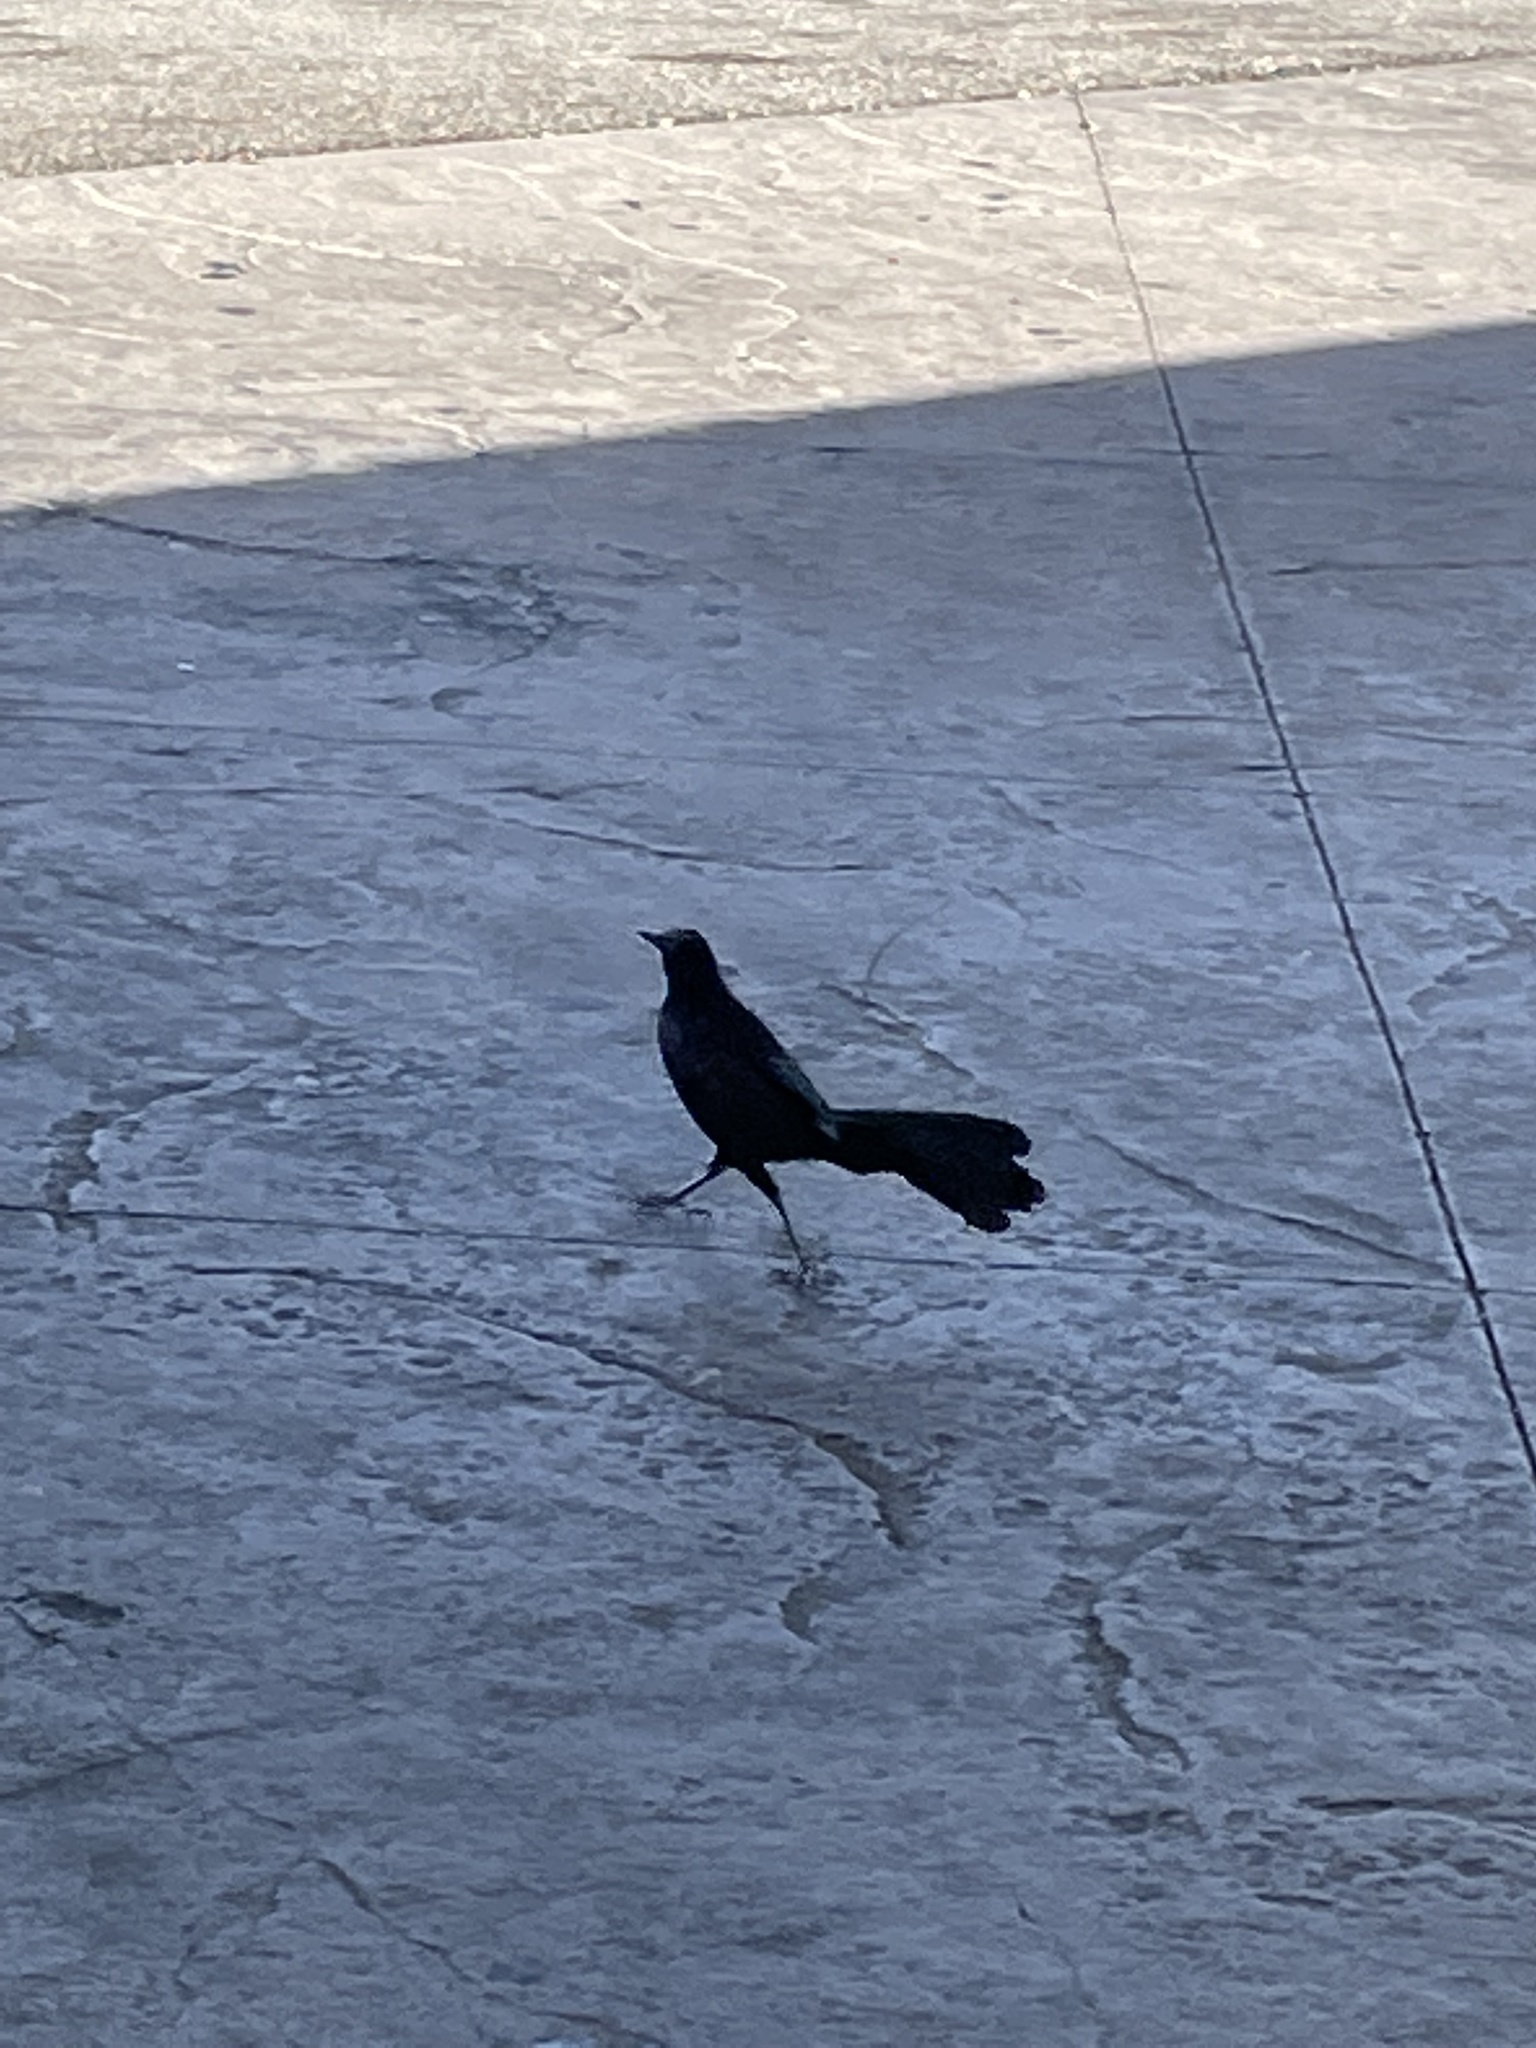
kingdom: Animalia
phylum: Chordata
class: Aves
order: Passeriformes
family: Icteridae
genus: Quiscalus
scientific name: Quiscalus mexicanus
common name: Great-tailed grackle
